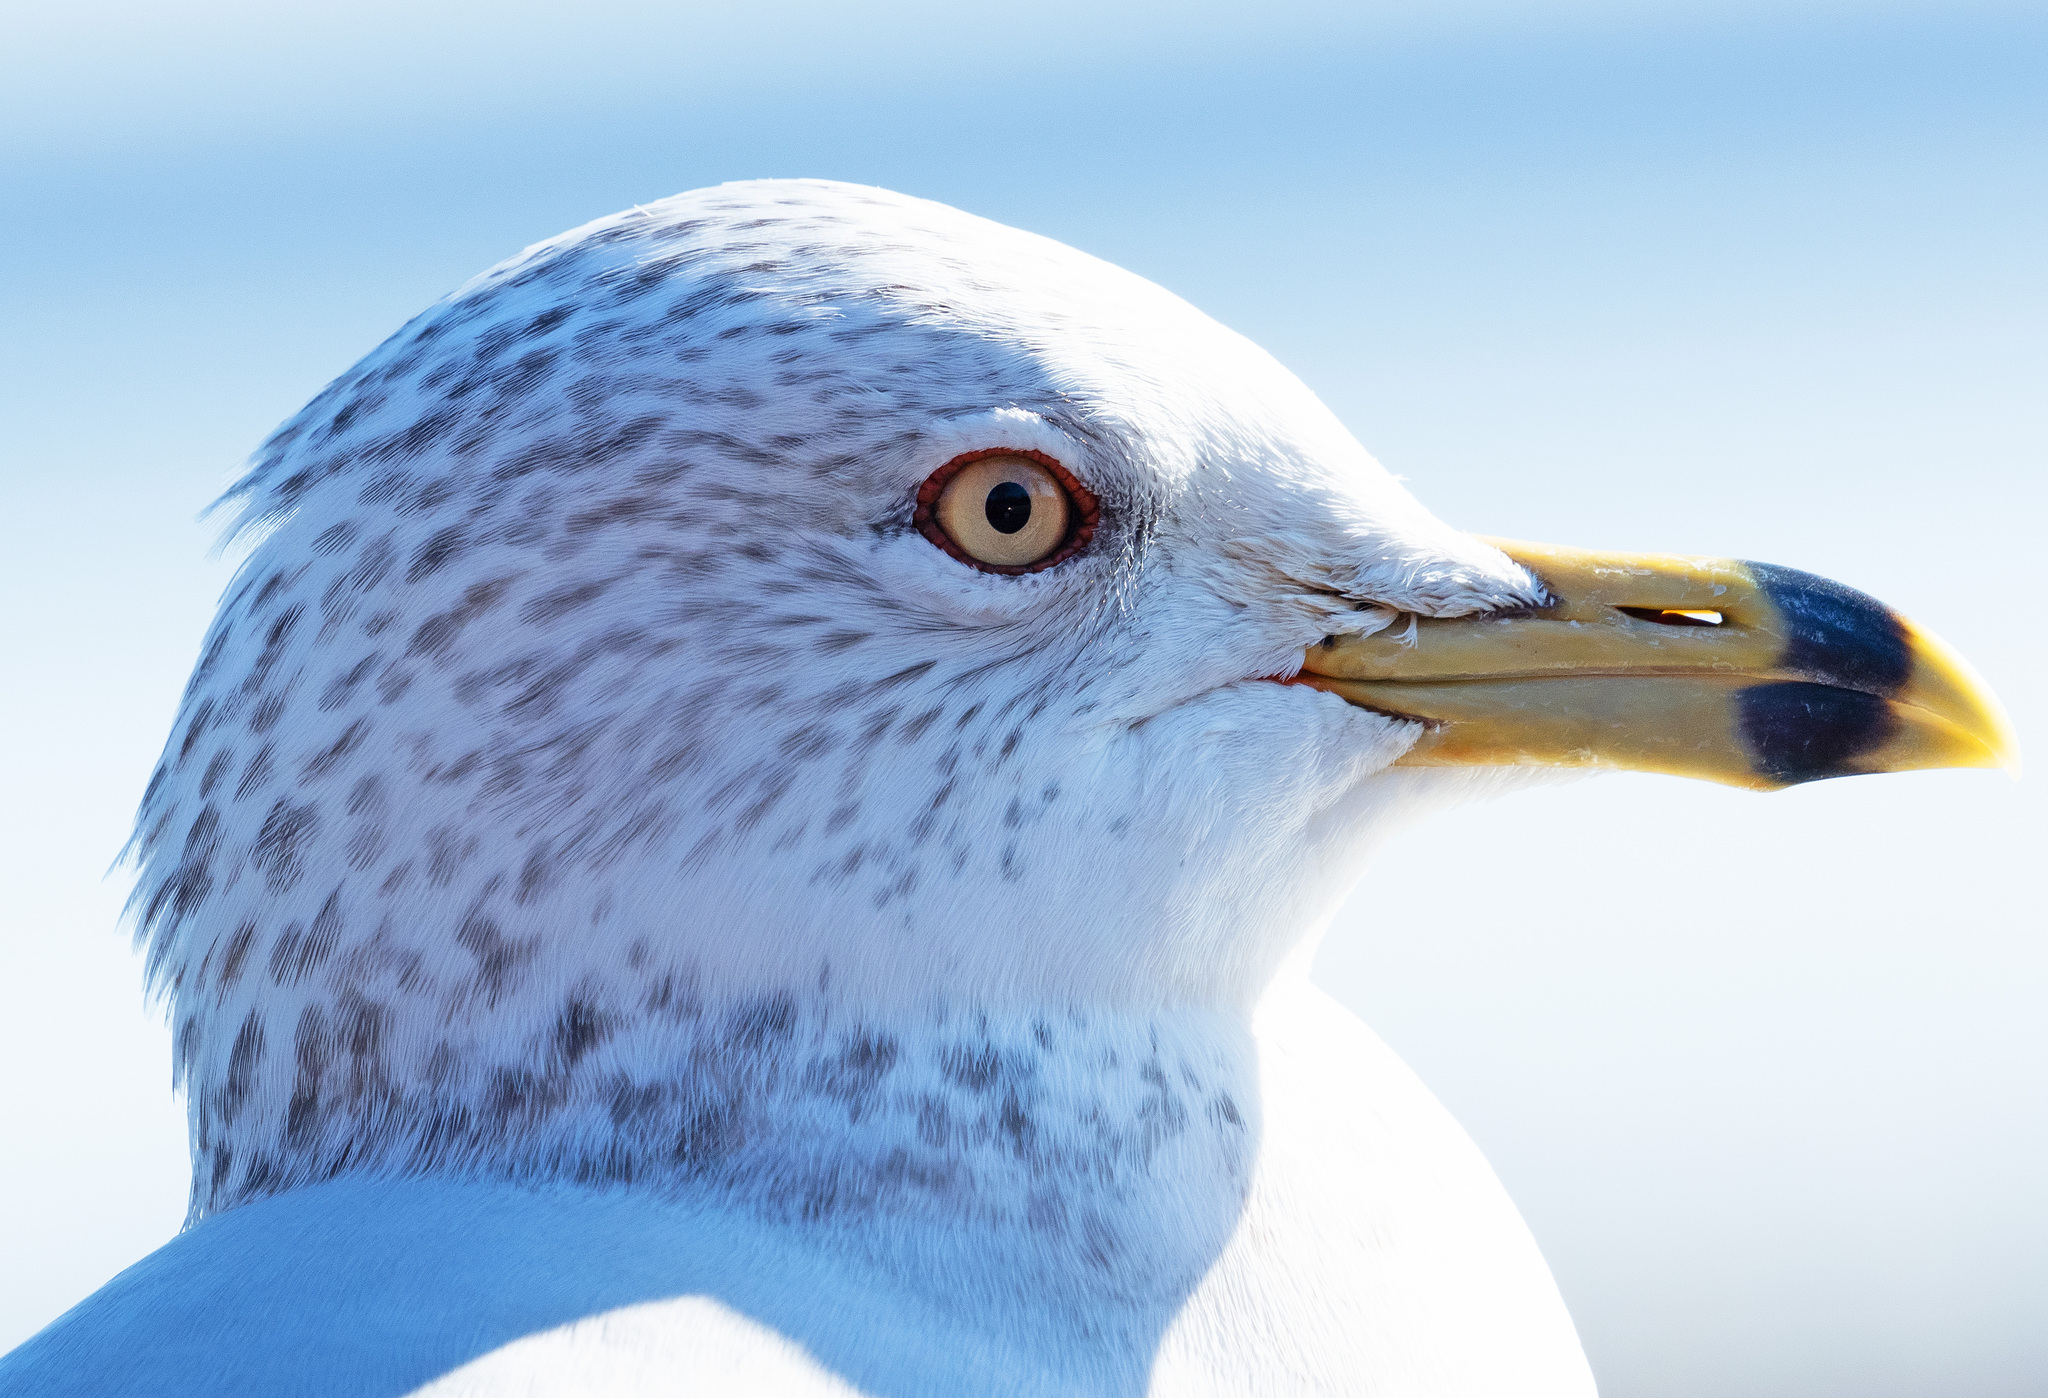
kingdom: Animalia
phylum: Chordata
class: Aves
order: Charadriiformes
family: Laridae
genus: Larus
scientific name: Larus delawarensis
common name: Ring-billed gull
